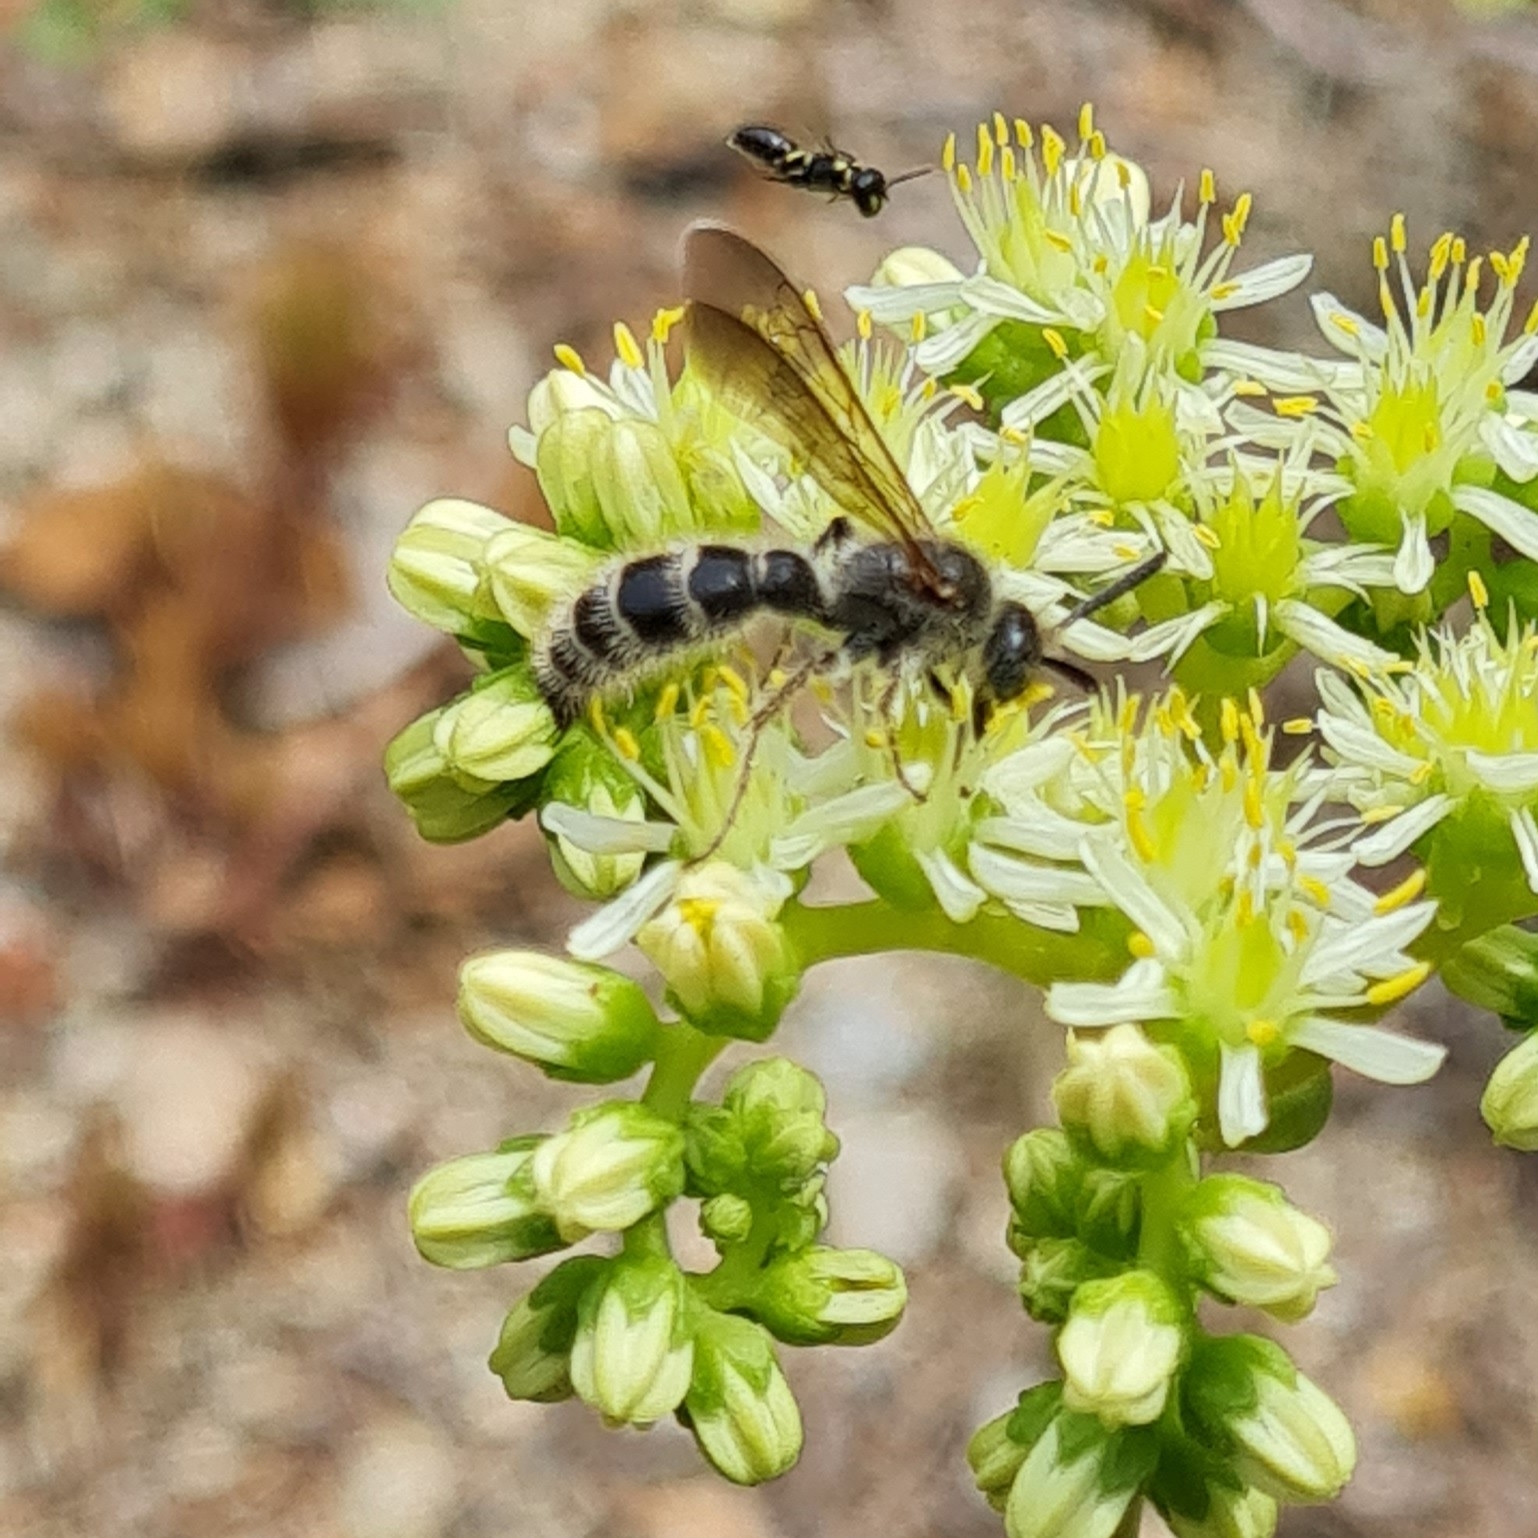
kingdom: Animalia
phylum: Arthropoda
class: Insecta
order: Hymenoptera
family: Scoliidae
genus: Colpa
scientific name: Colpa quinquecincta
